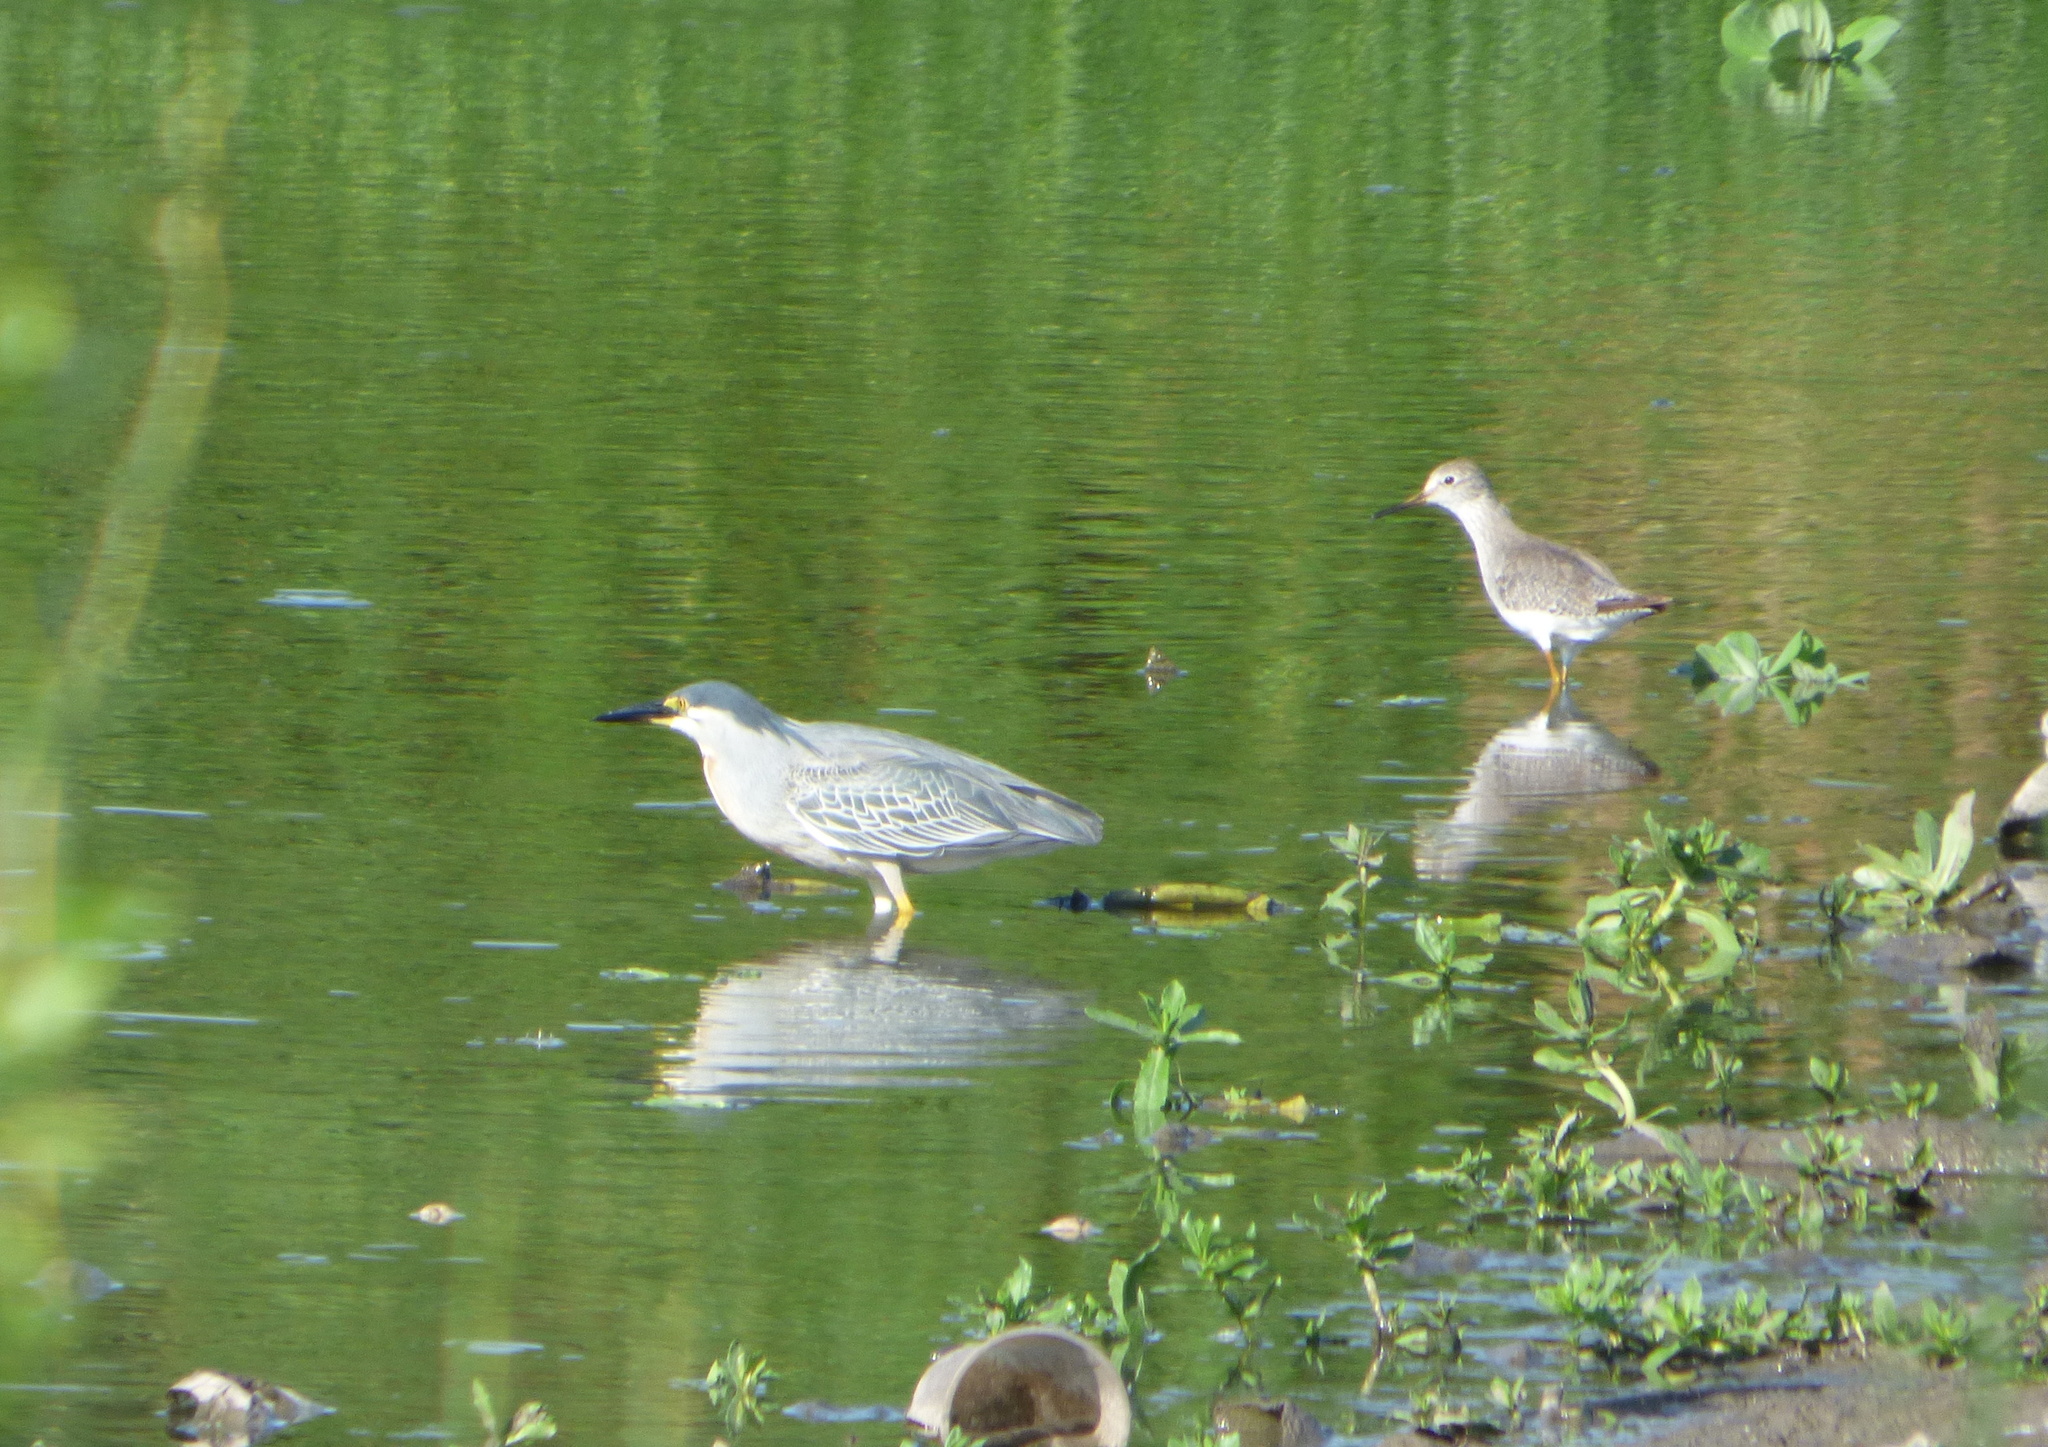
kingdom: Animalia
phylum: Chordata
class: Aves
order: Pelecaniformes
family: Ardeidae
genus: Butorides
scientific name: Butorides striata
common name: Striated heron
